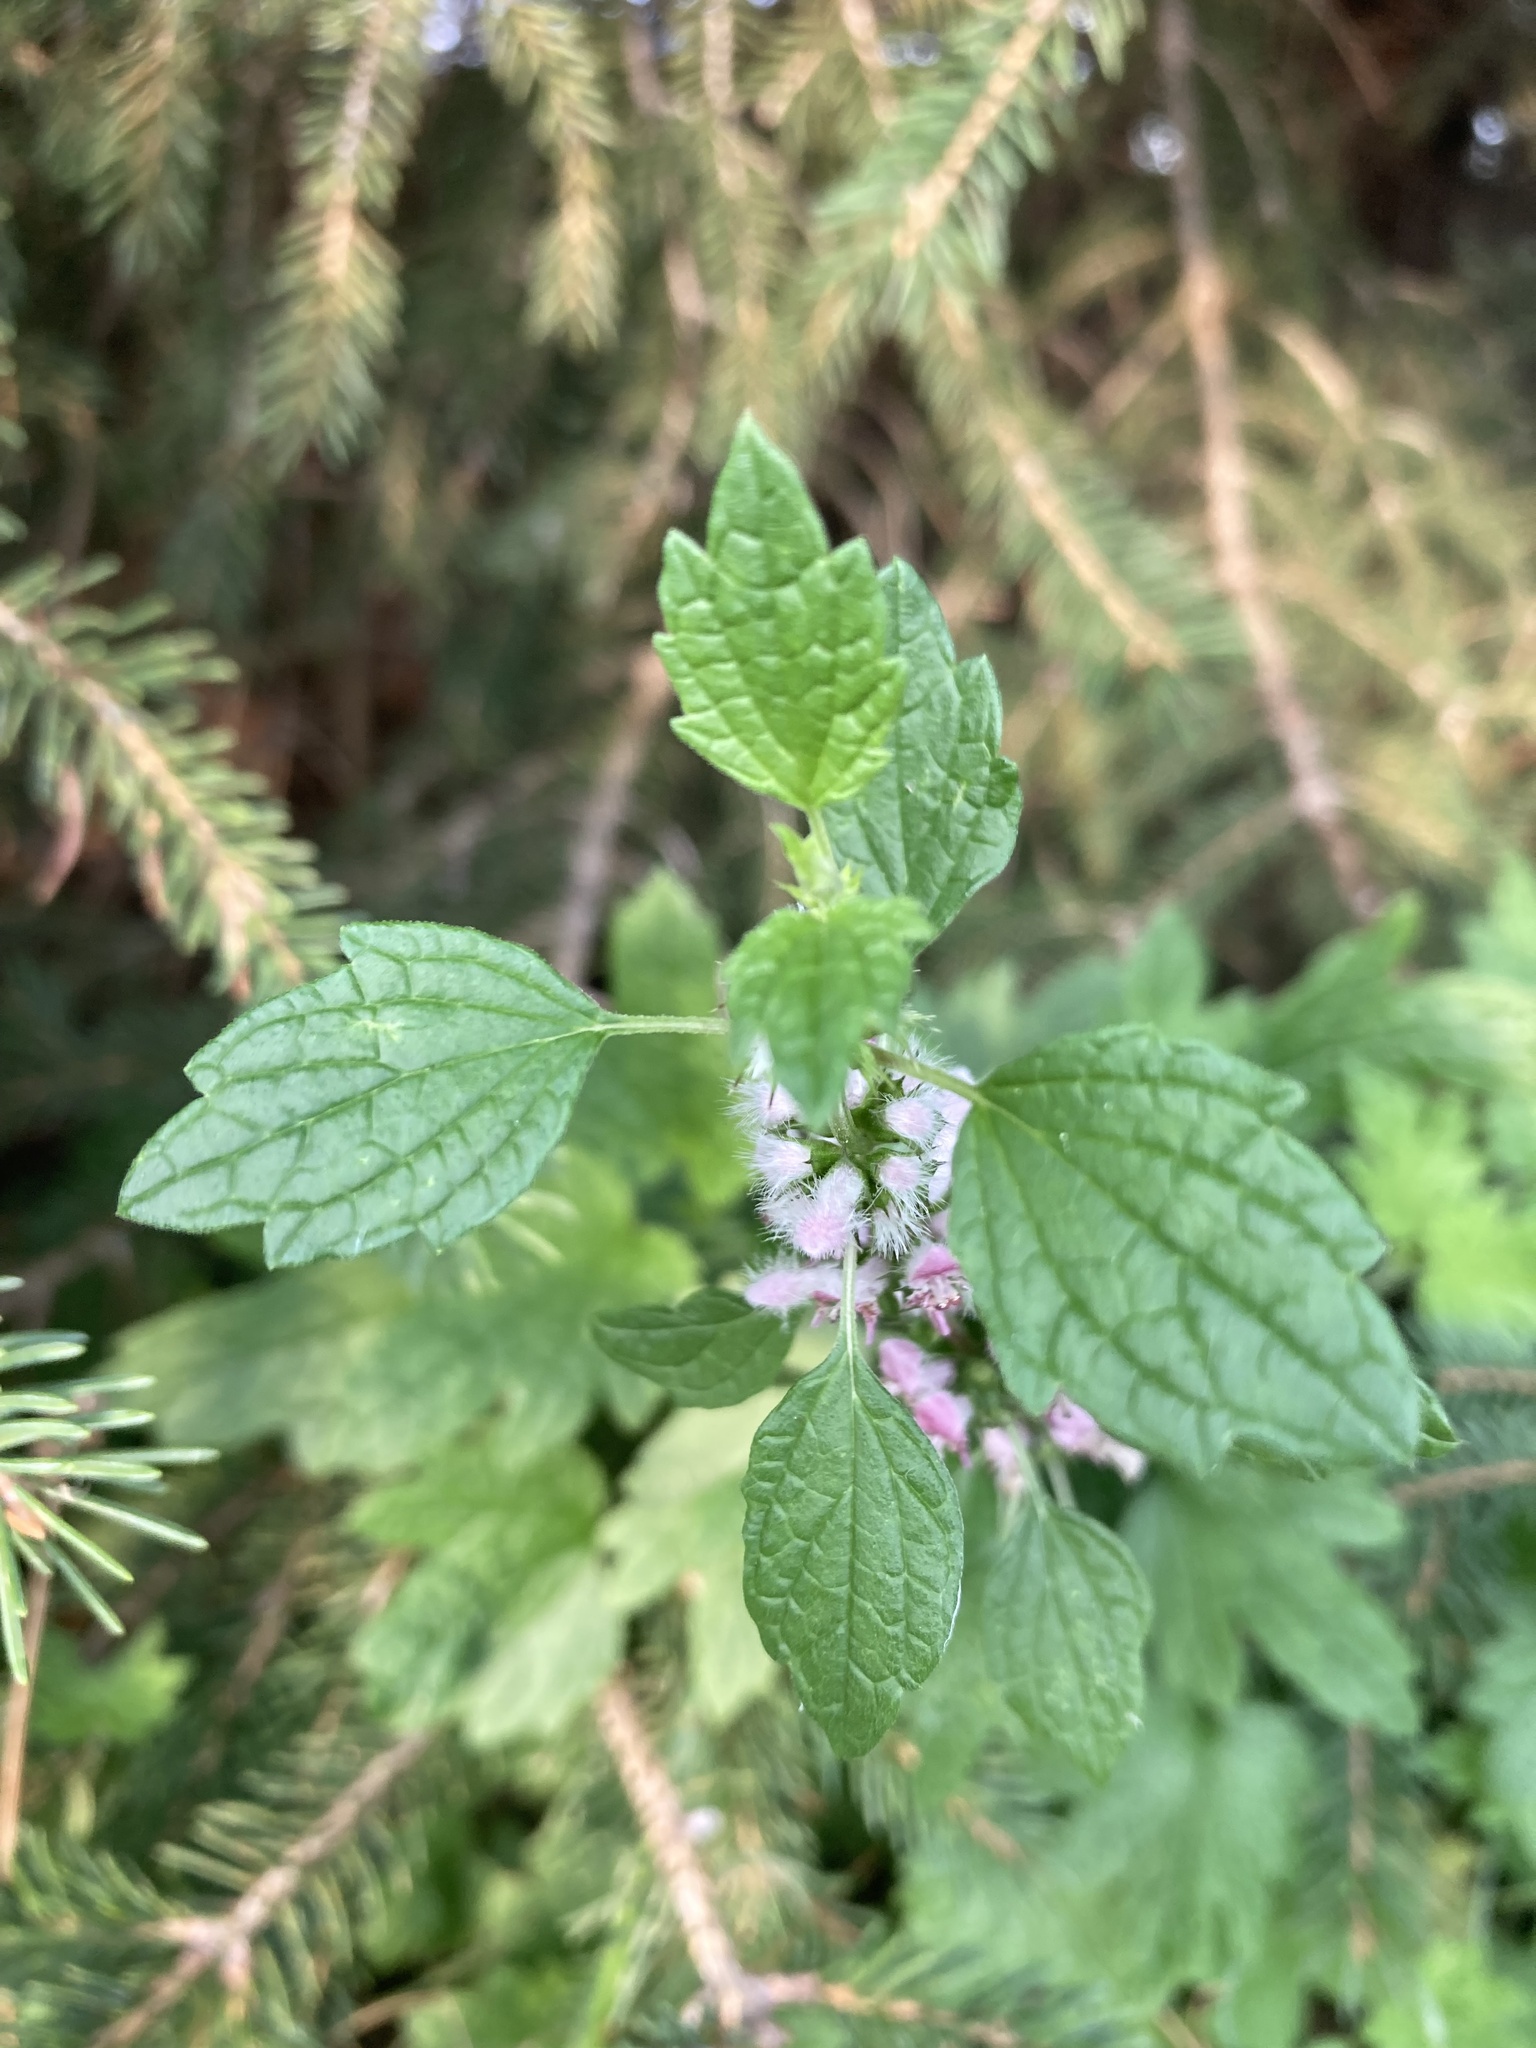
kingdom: Plantae
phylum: Tracheophyta
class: Magnoliopsida
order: Lamiales
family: Lamiaceae
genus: Leonurus
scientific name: Leonurus cardiaca
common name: Motherwort
